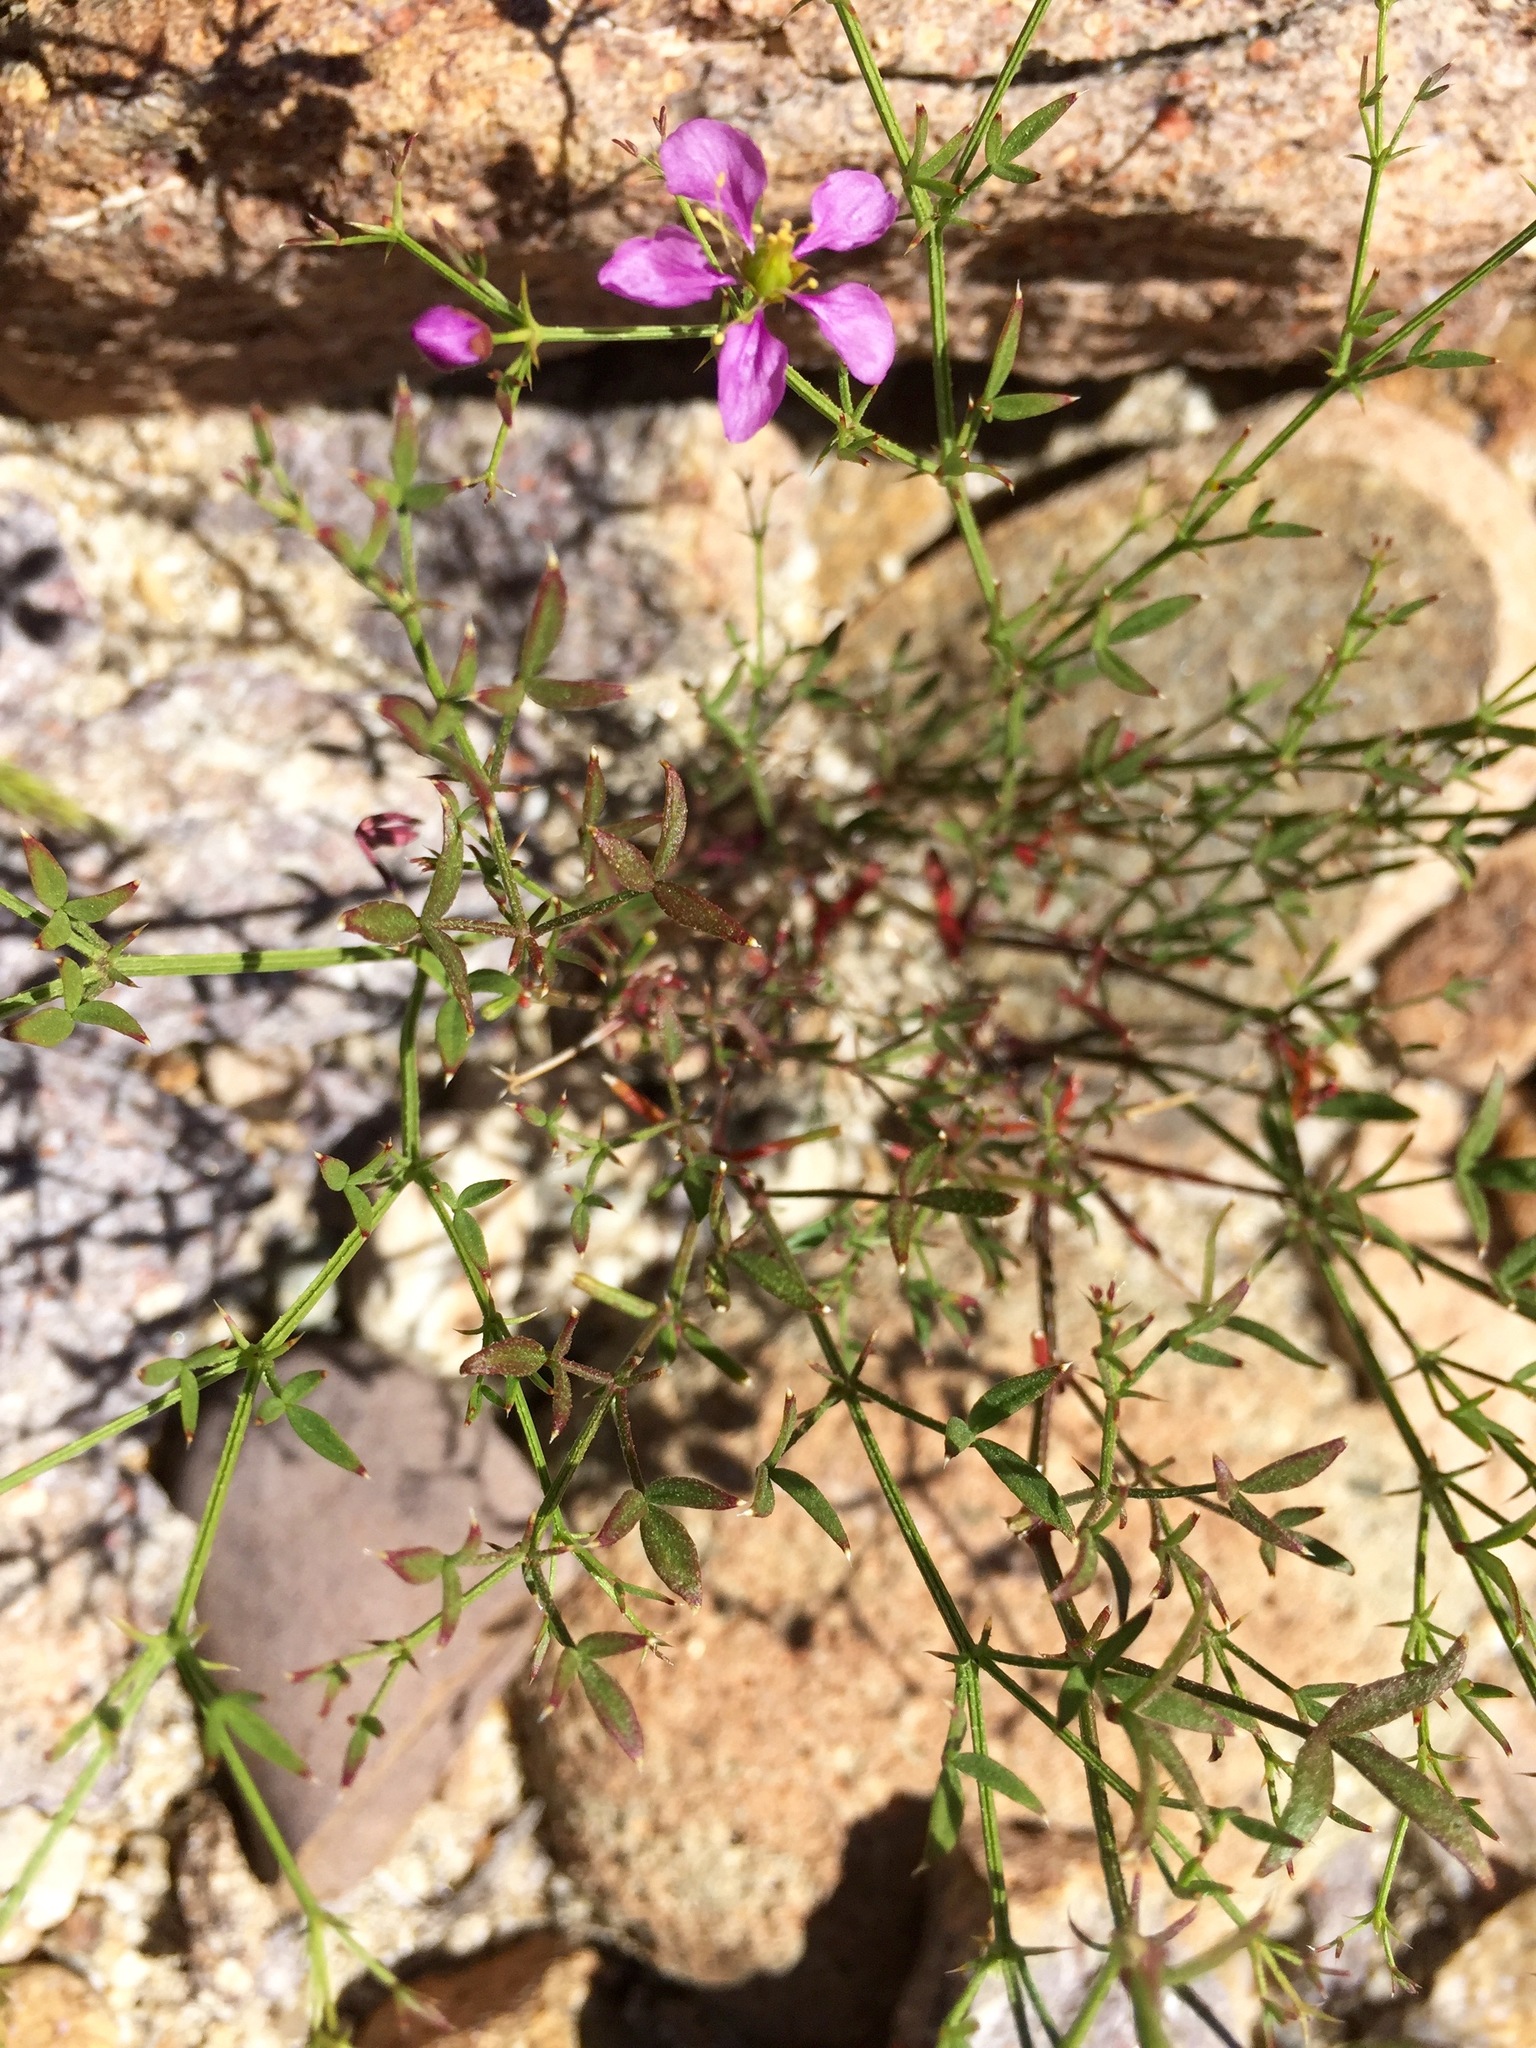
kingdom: Plantae
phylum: Tracheophyta
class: Magnoliopsida
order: Zygophyllales
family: Zygophyllaceae
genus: Fagonia
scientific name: Fagonia laevis
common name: California fagonbush
